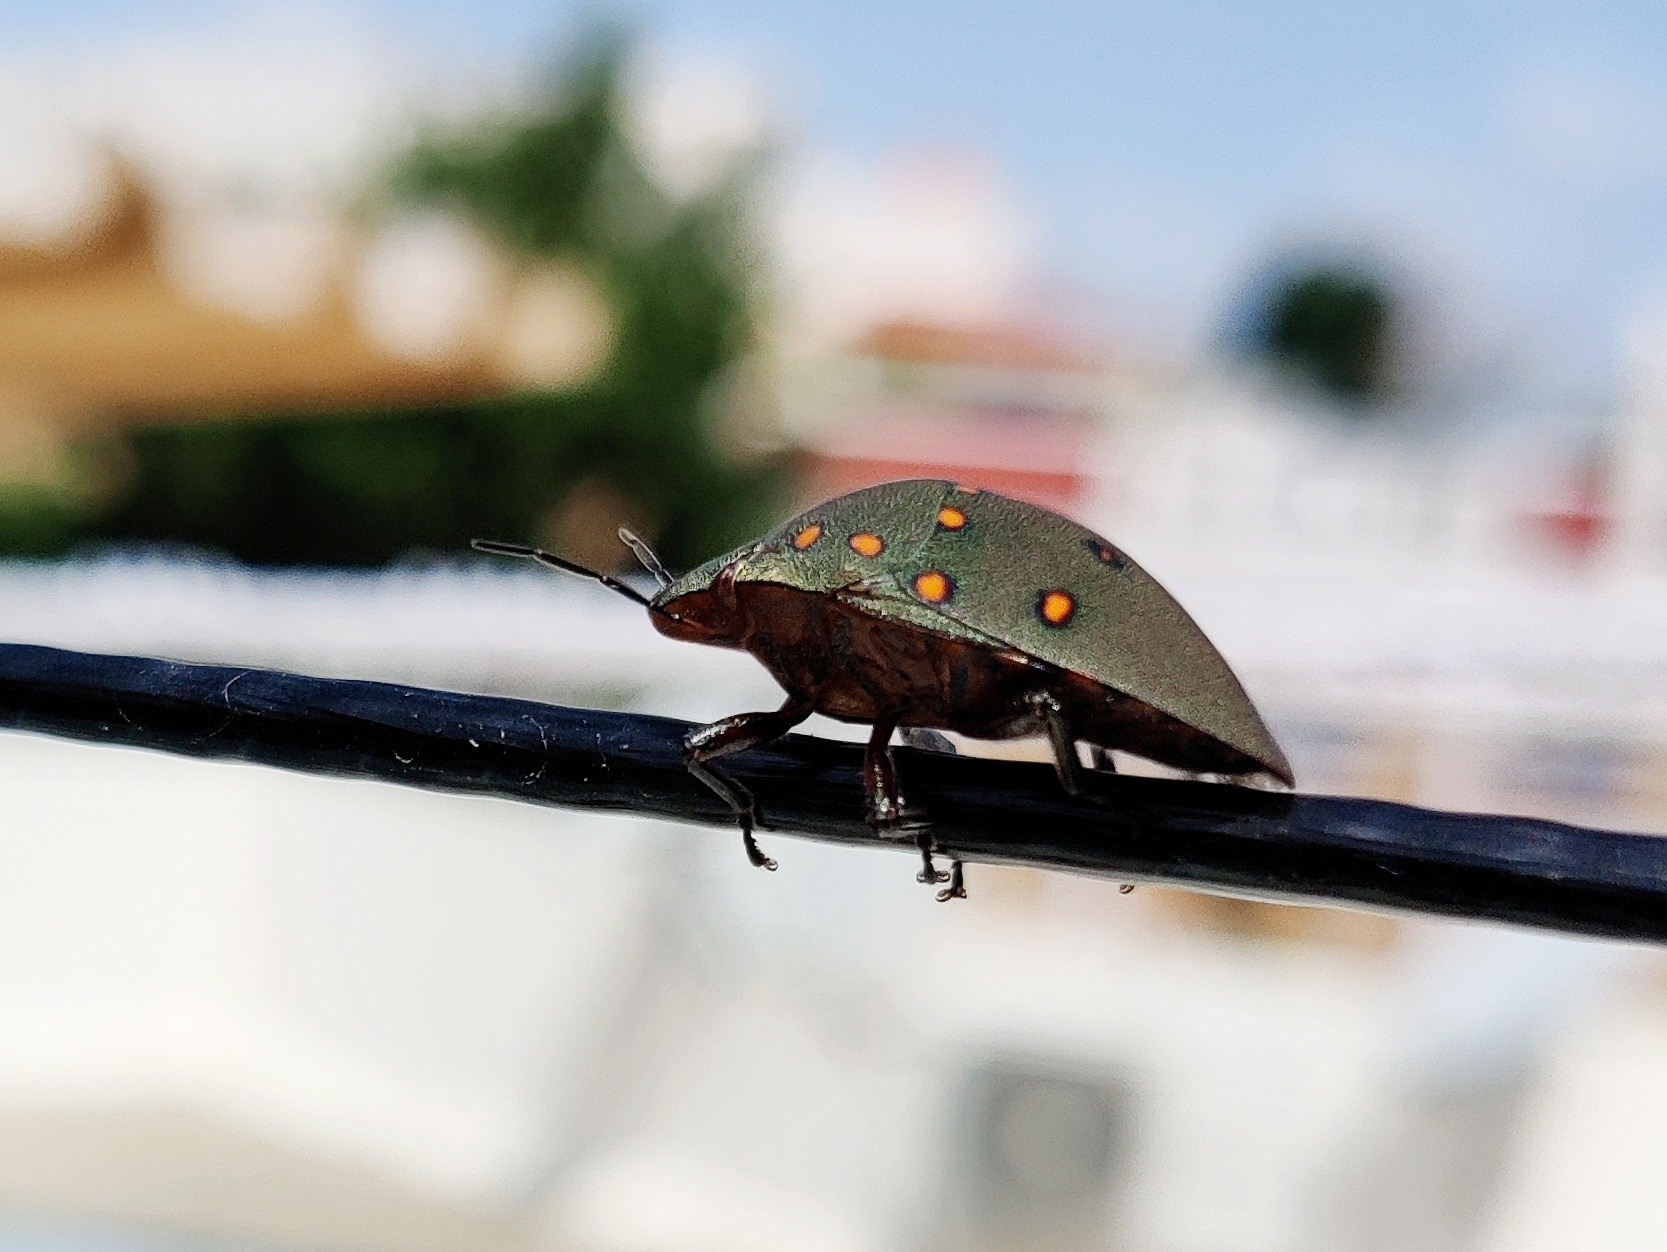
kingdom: Animalia
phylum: Arthropoda
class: Insecta
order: Hemiptera
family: Scutelleridae
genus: Solenosthedium
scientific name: Solenosthedium
